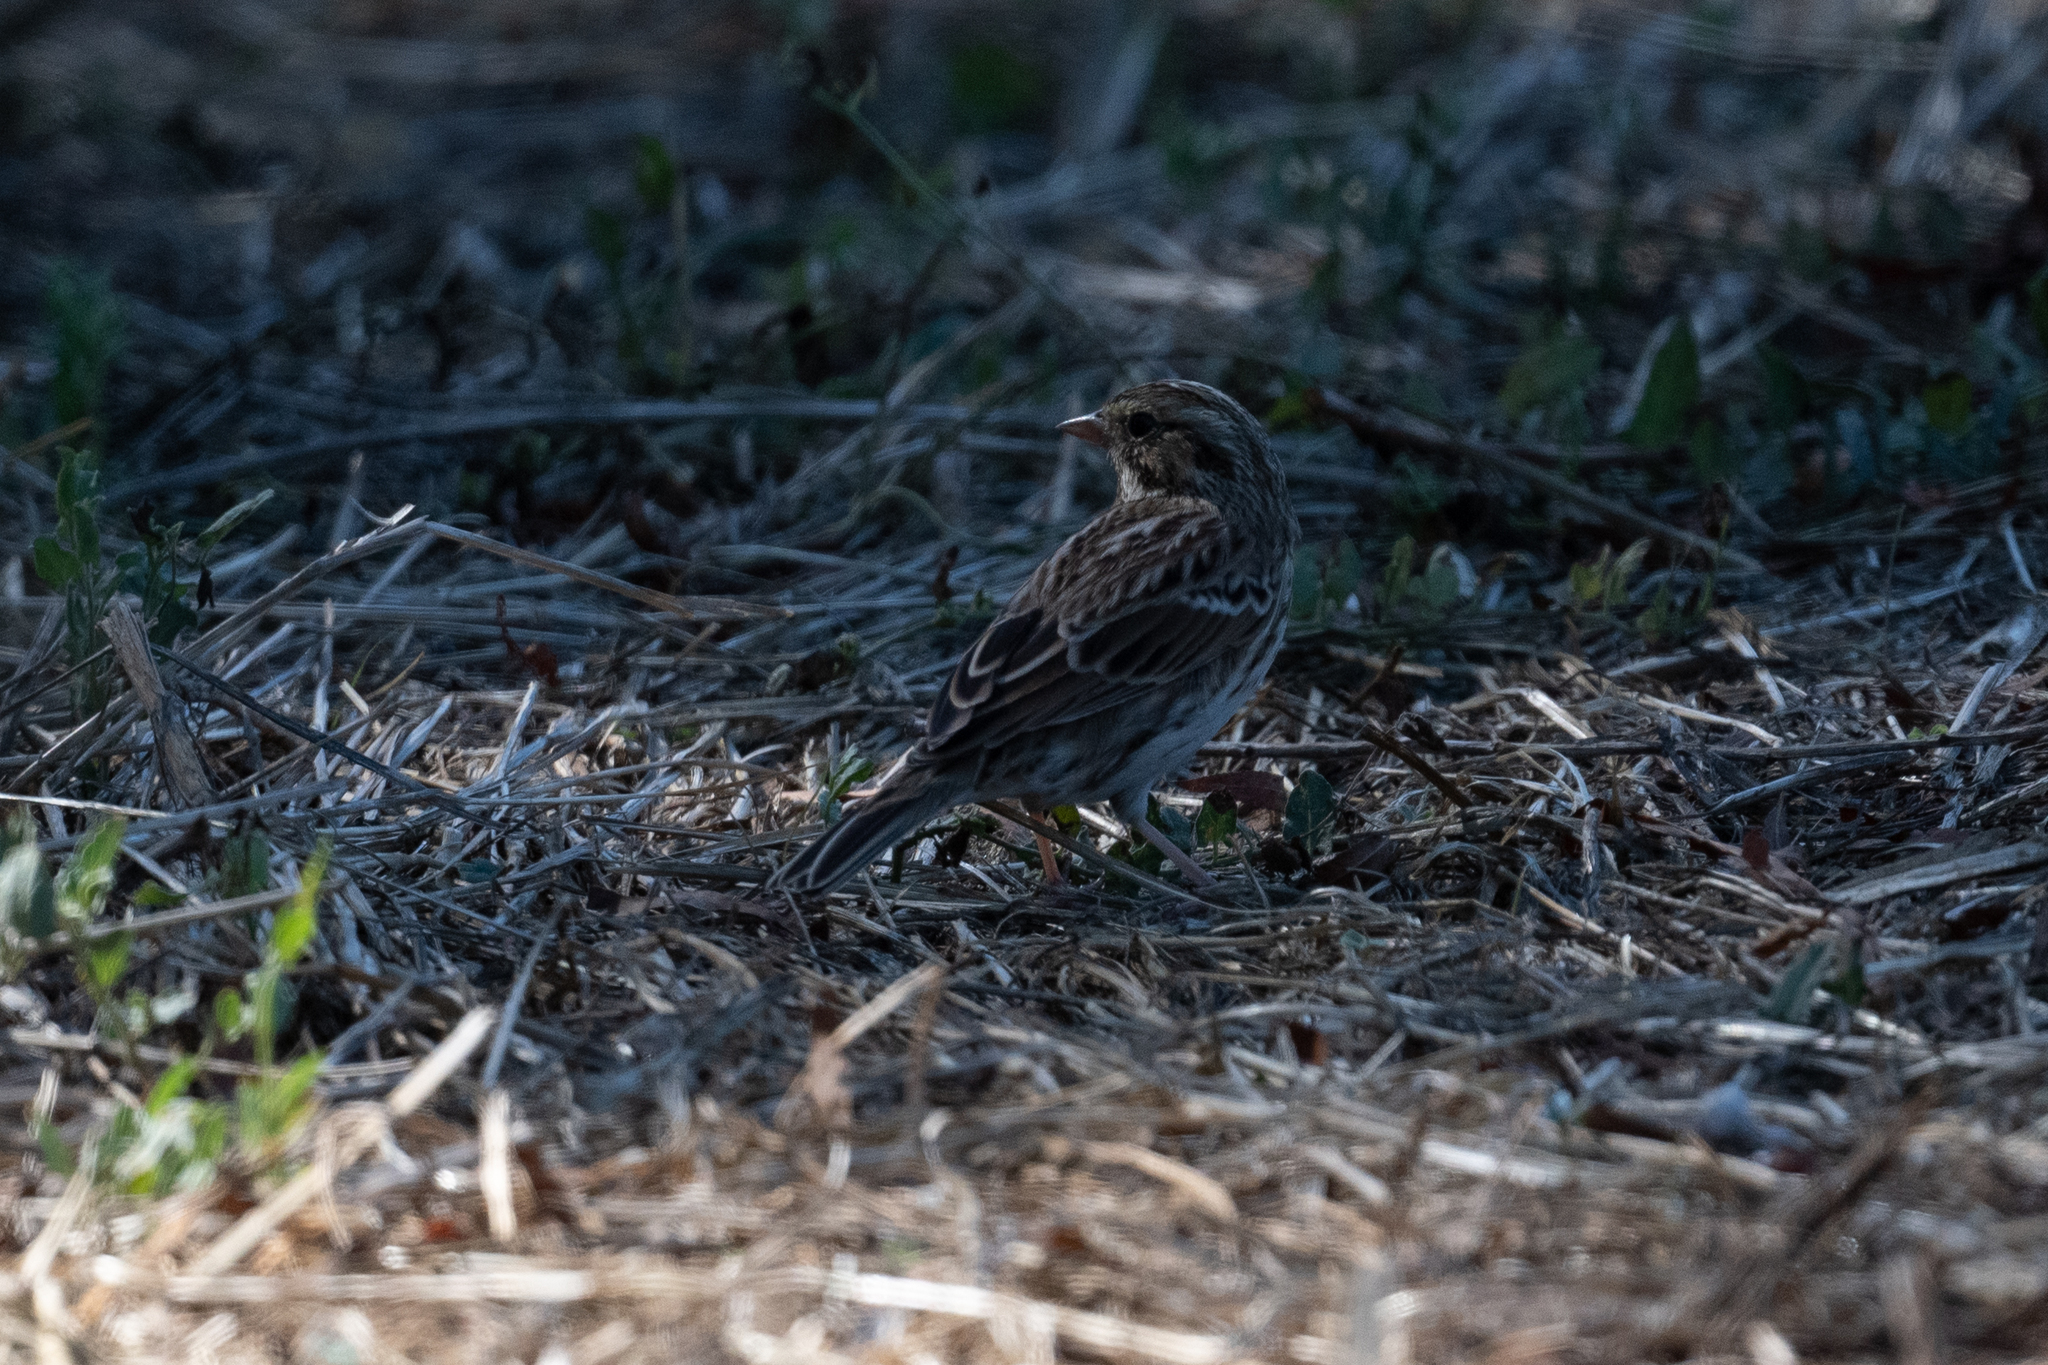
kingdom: Animalia
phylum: Chordata
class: Aves
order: Passeriformes
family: Passerellidae
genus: Passerculus
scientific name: Passerculus sandwichensis
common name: Savannah sparrow
